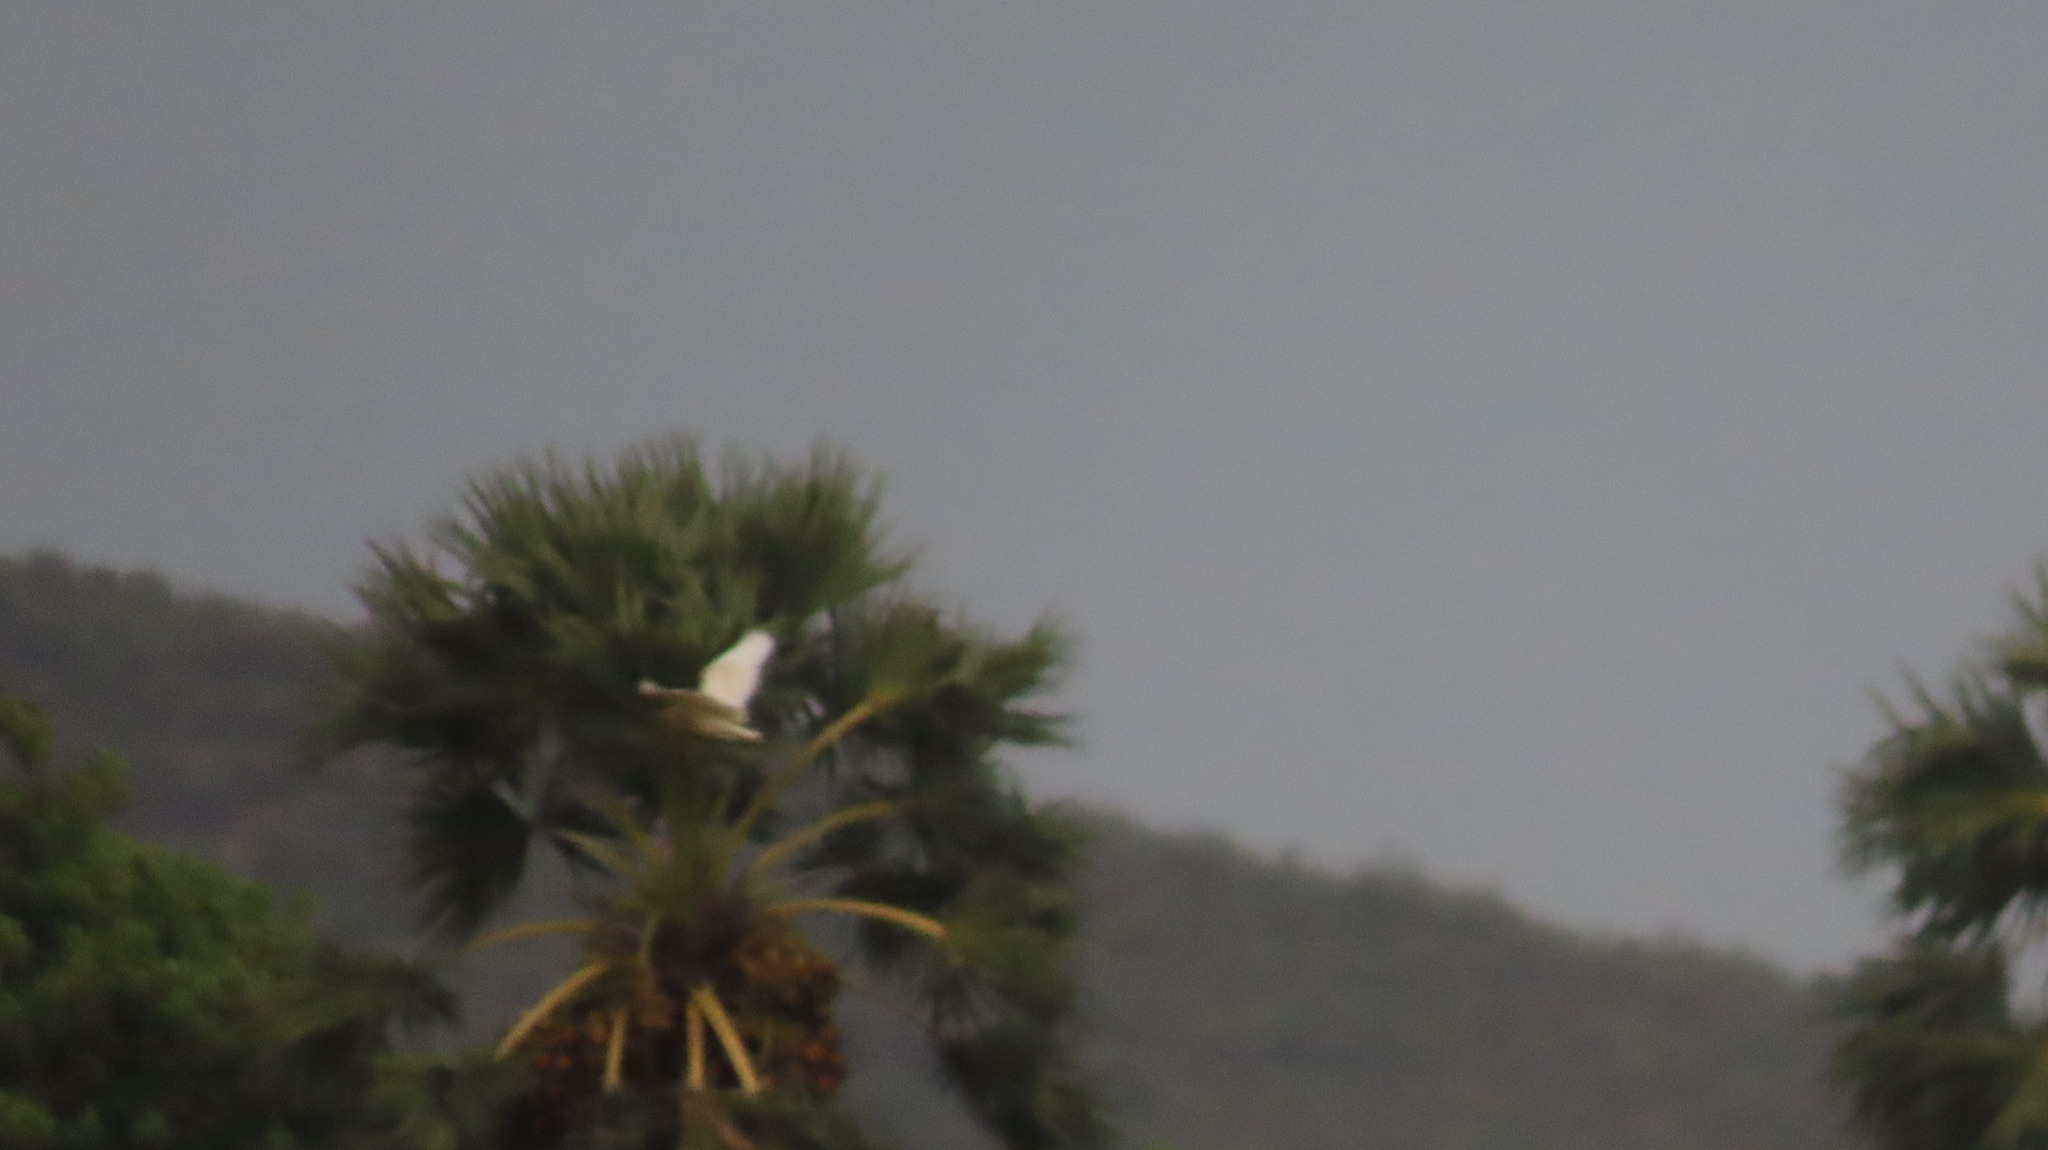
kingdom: Animalia
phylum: Chordata
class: Aves
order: Pelecaniformes
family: Ardeidae
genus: Ardeola
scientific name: Ardeola grayii
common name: Indian pond heron
